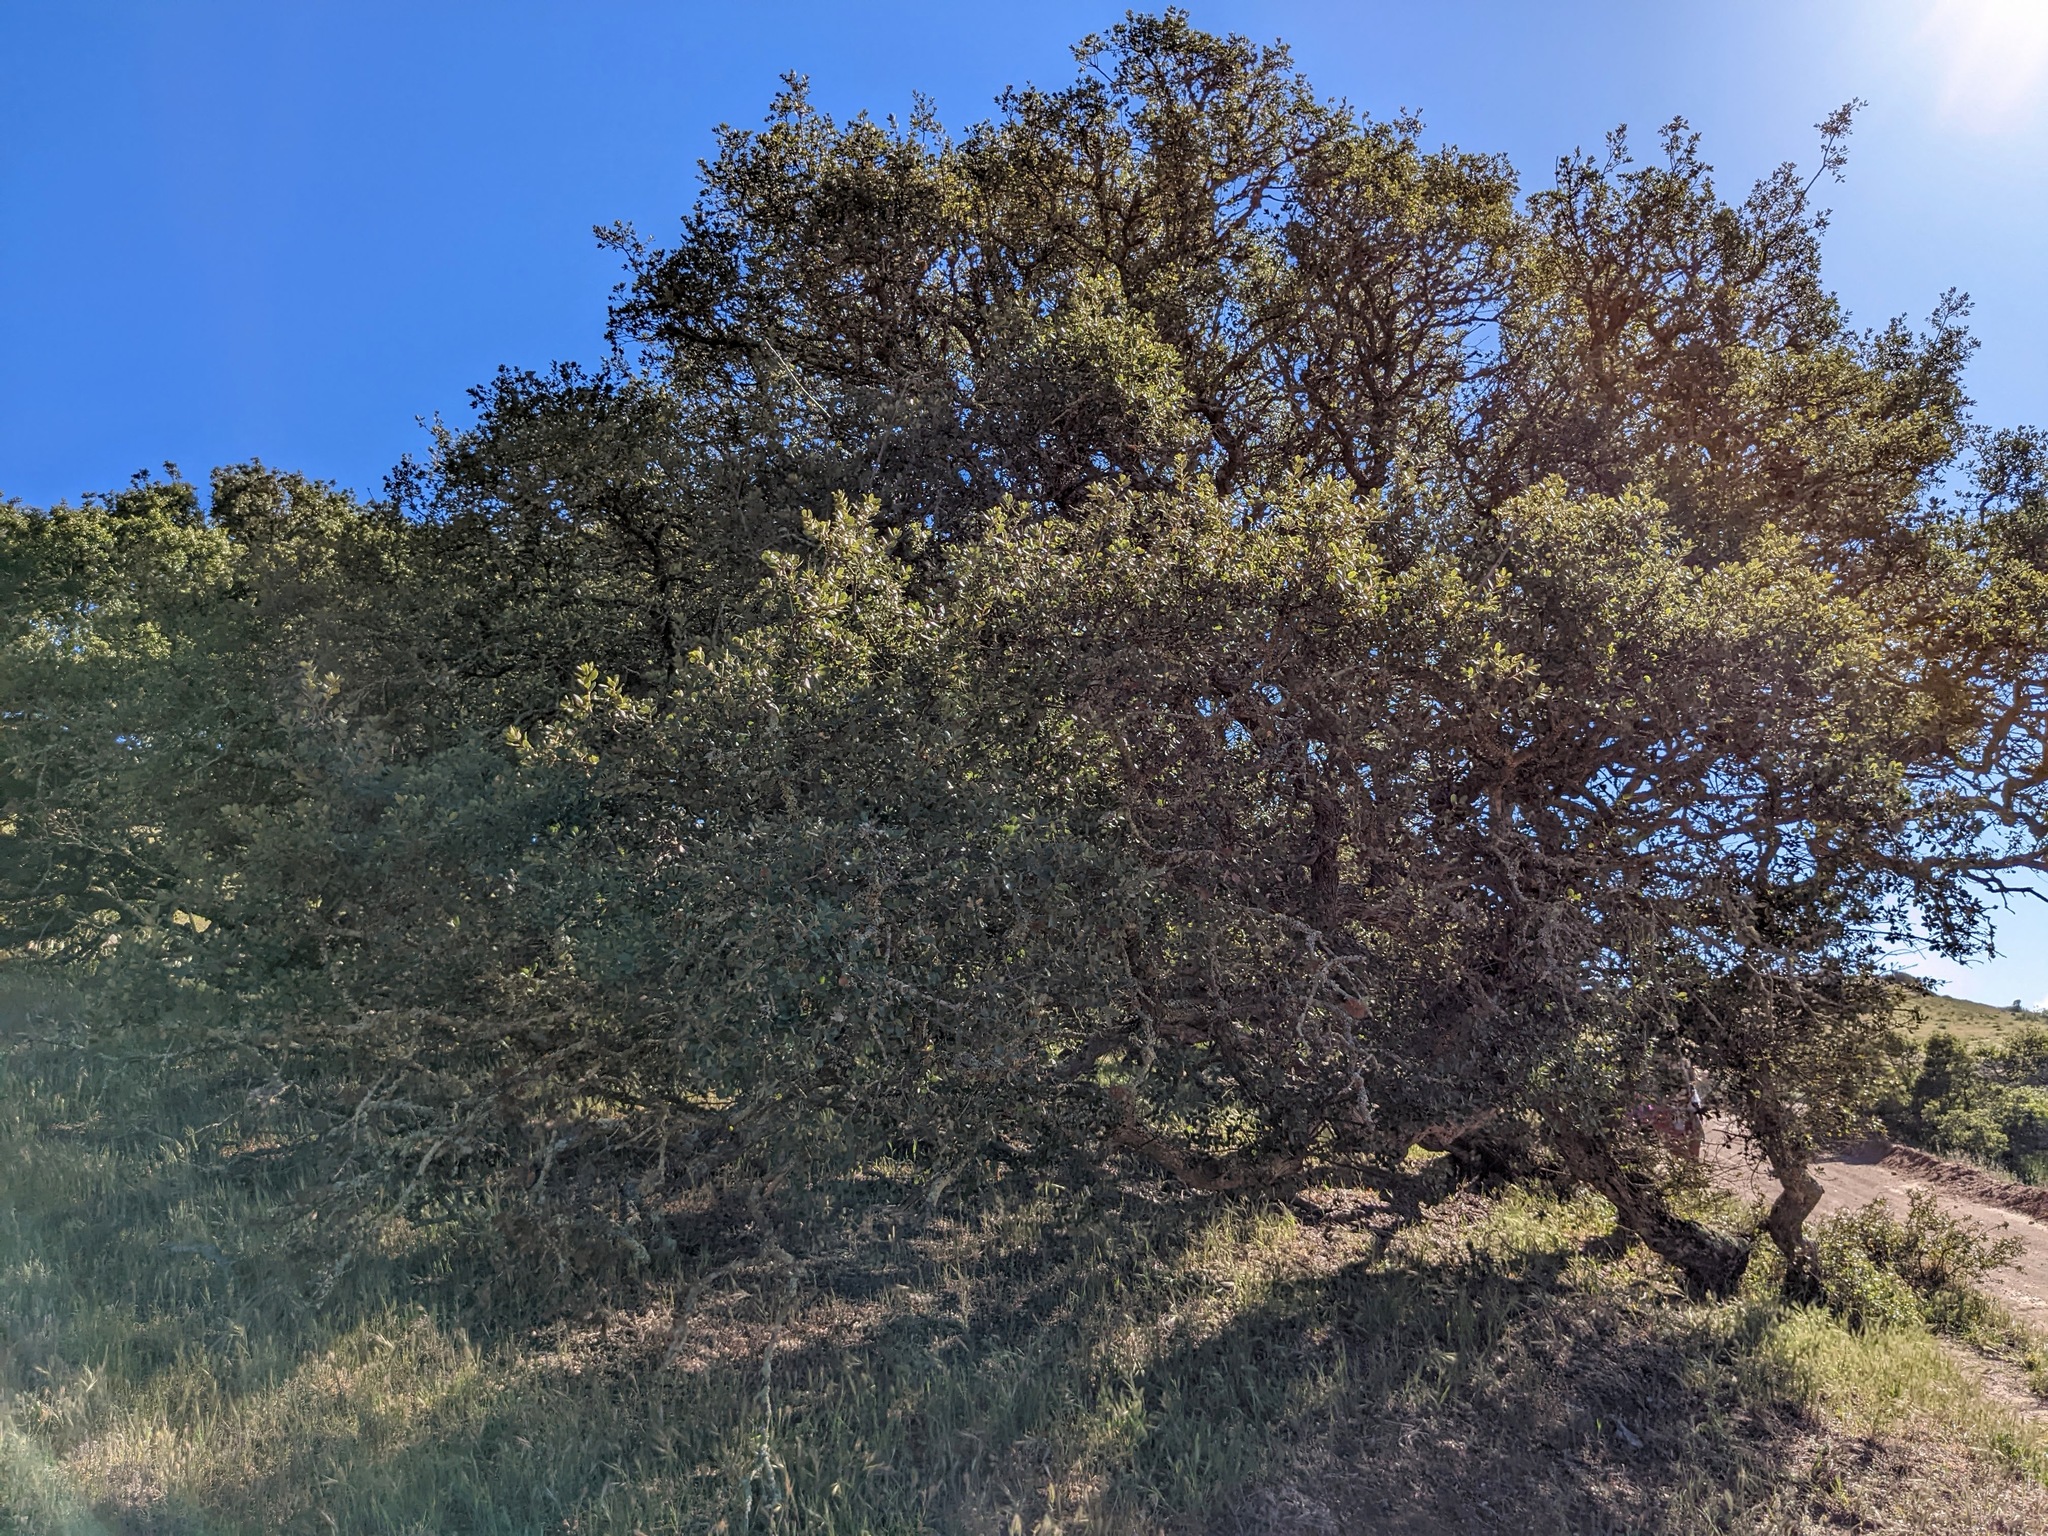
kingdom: Plantae
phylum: Tracheophyta
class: Magnoliopsida
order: Fagales
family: Fagaceae
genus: Quercus
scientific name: Quercus
